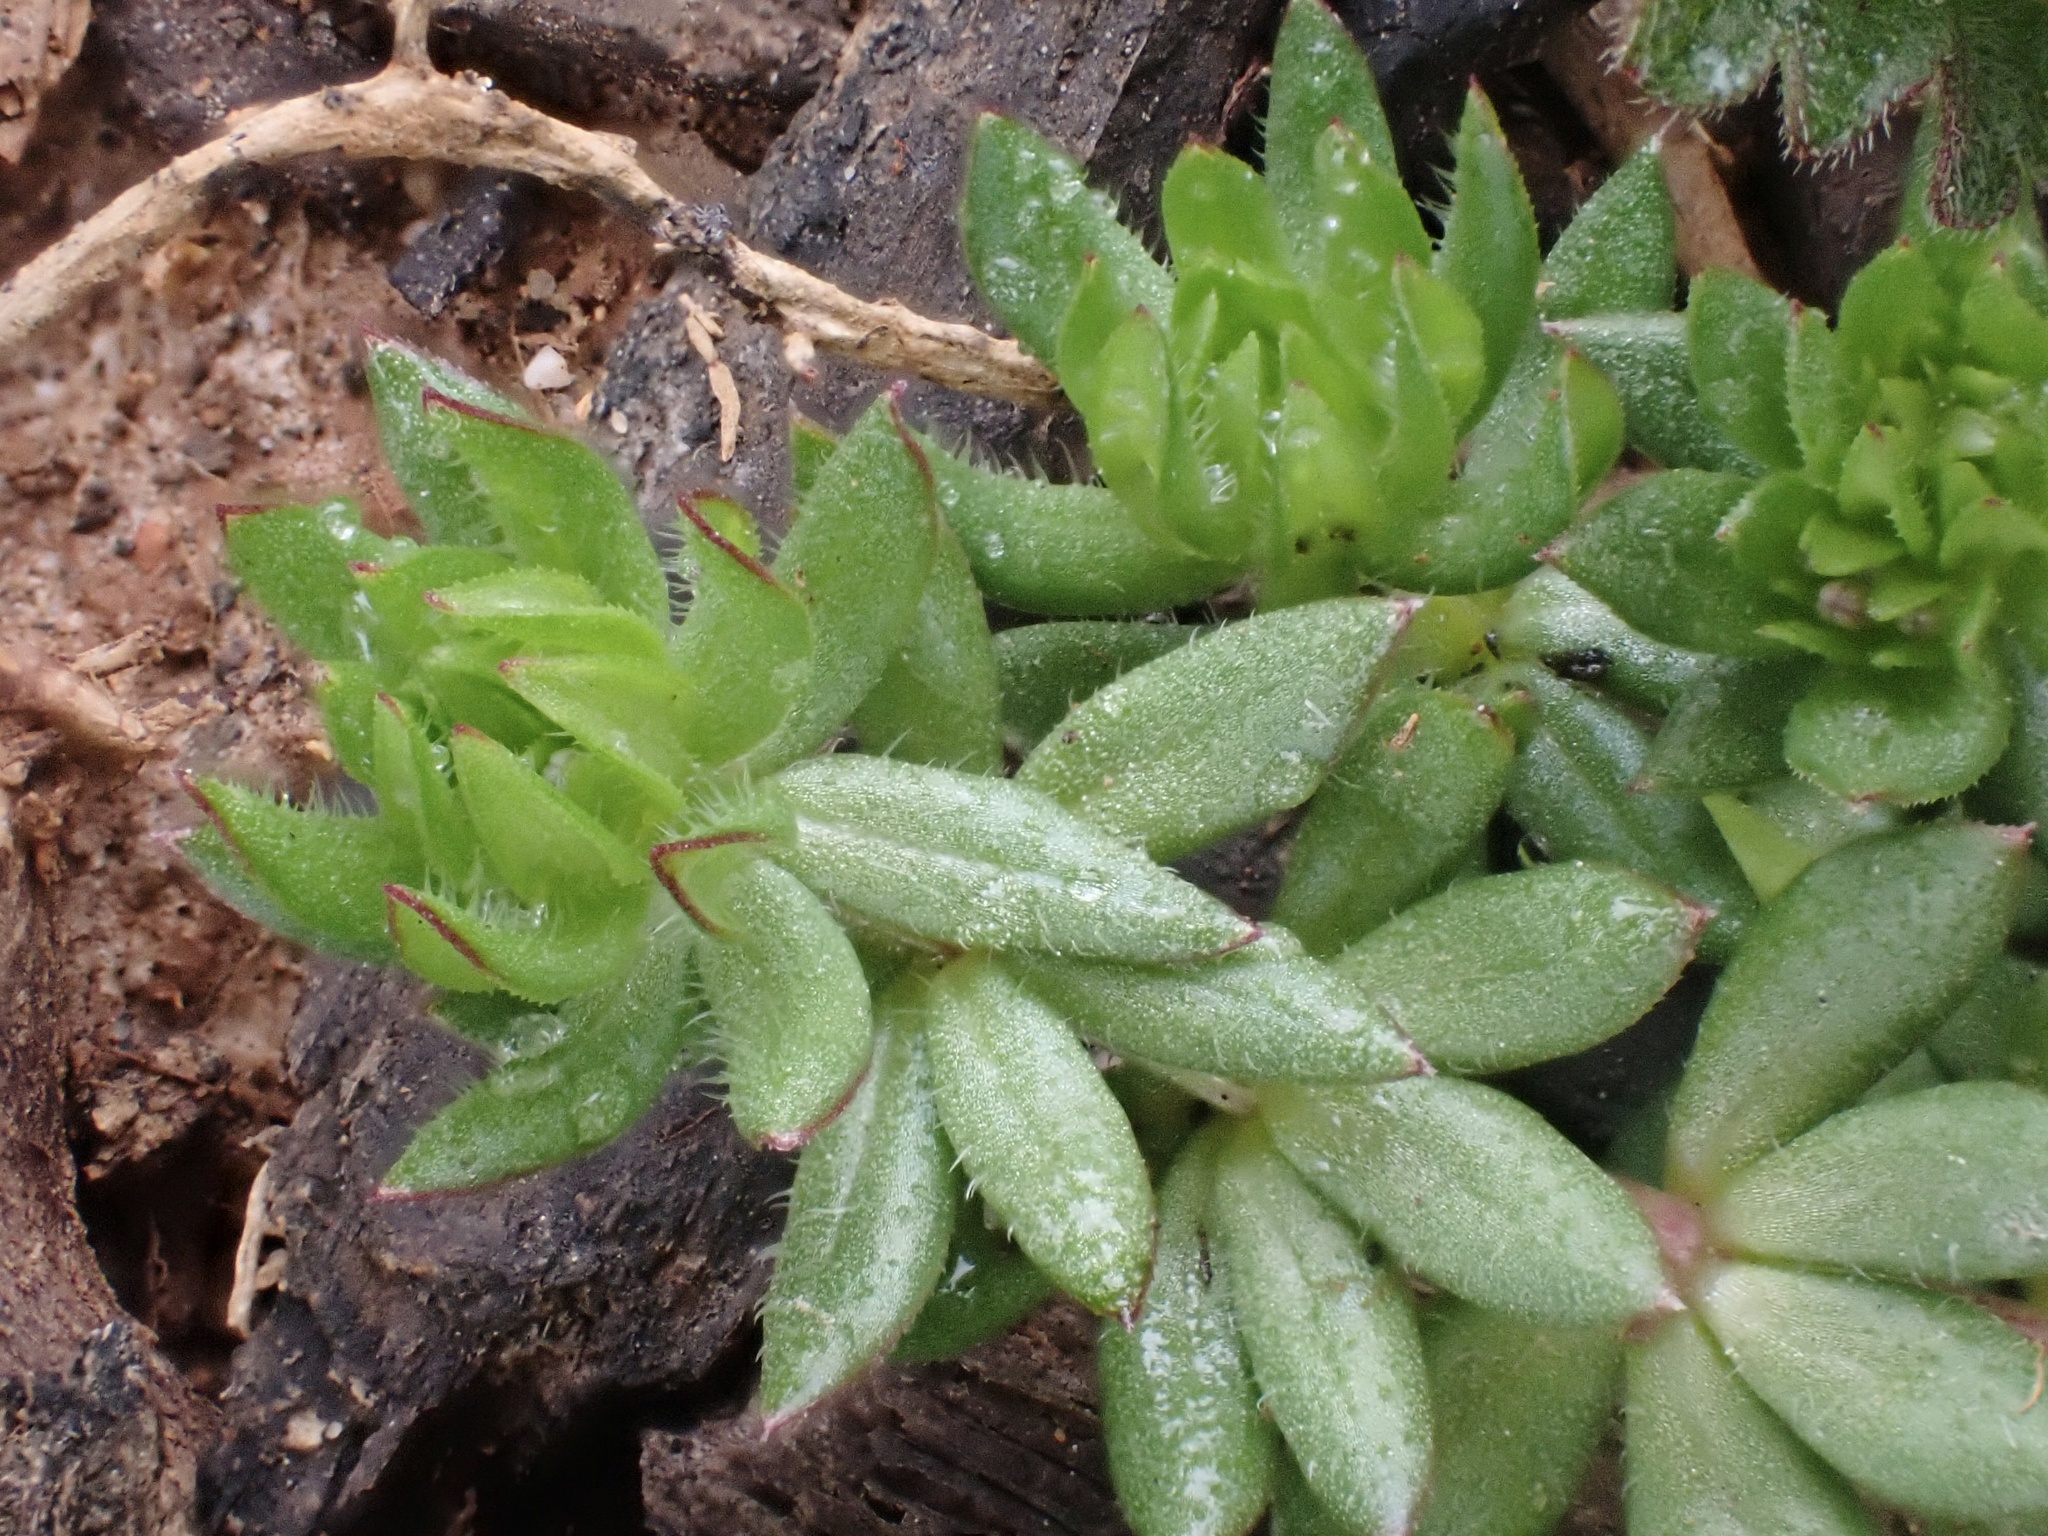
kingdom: Plantae
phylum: Tracheophyta
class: Magnoliopsida
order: Gentianales
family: Rubiaceae
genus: Sherardia
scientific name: Sherardia arvensis
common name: Field madder
